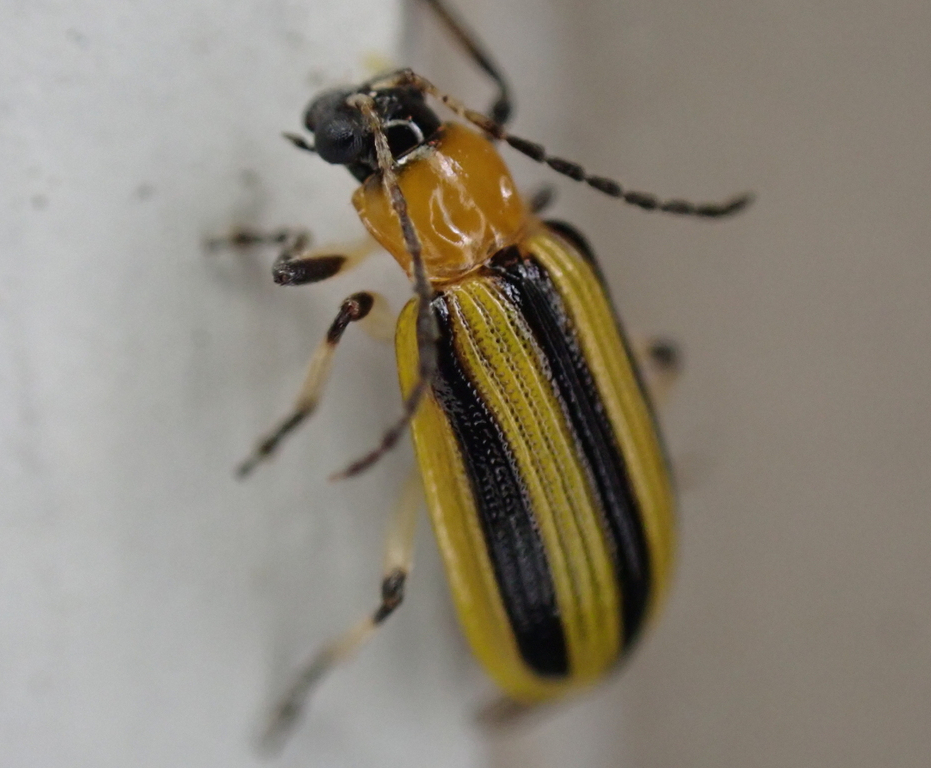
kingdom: Animalia
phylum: Arthropoda
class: Insecta
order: Coleoptera
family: Chrysomelidae
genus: Acalymma
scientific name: Acalymma vittatum
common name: Striped cucumber beetle
